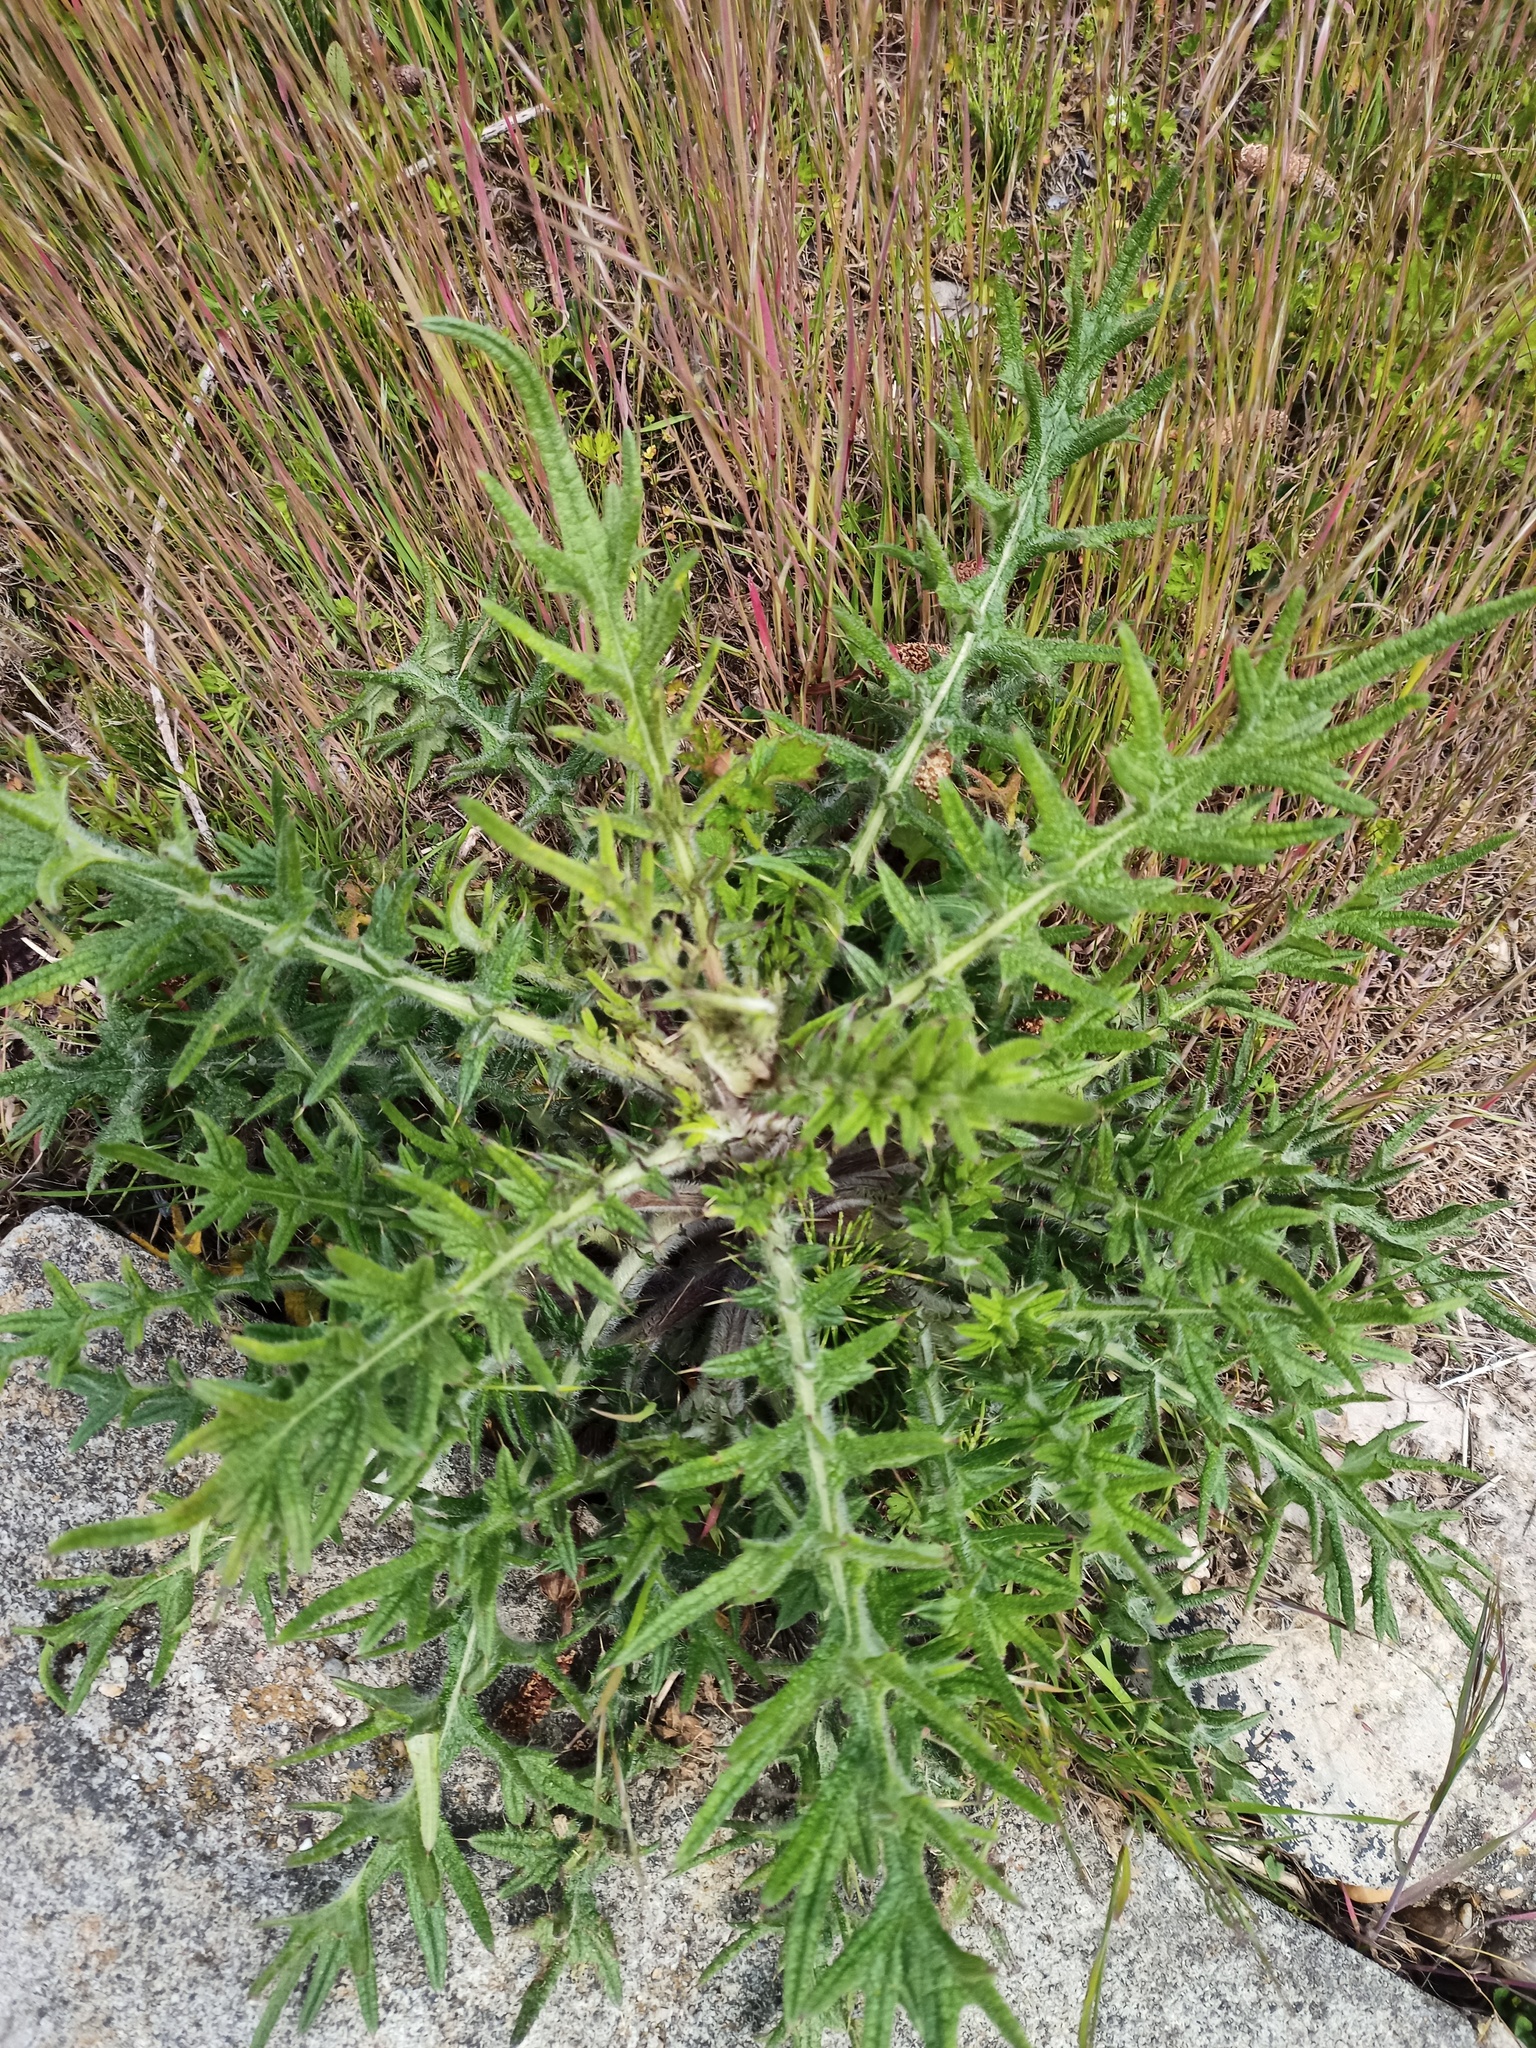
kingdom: Plantae
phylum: Tracheophyta
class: Magnoliopsida
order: Asterales
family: Asteraceae
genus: Cirsium
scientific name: Cirsium vulgare
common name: Bull thistle
